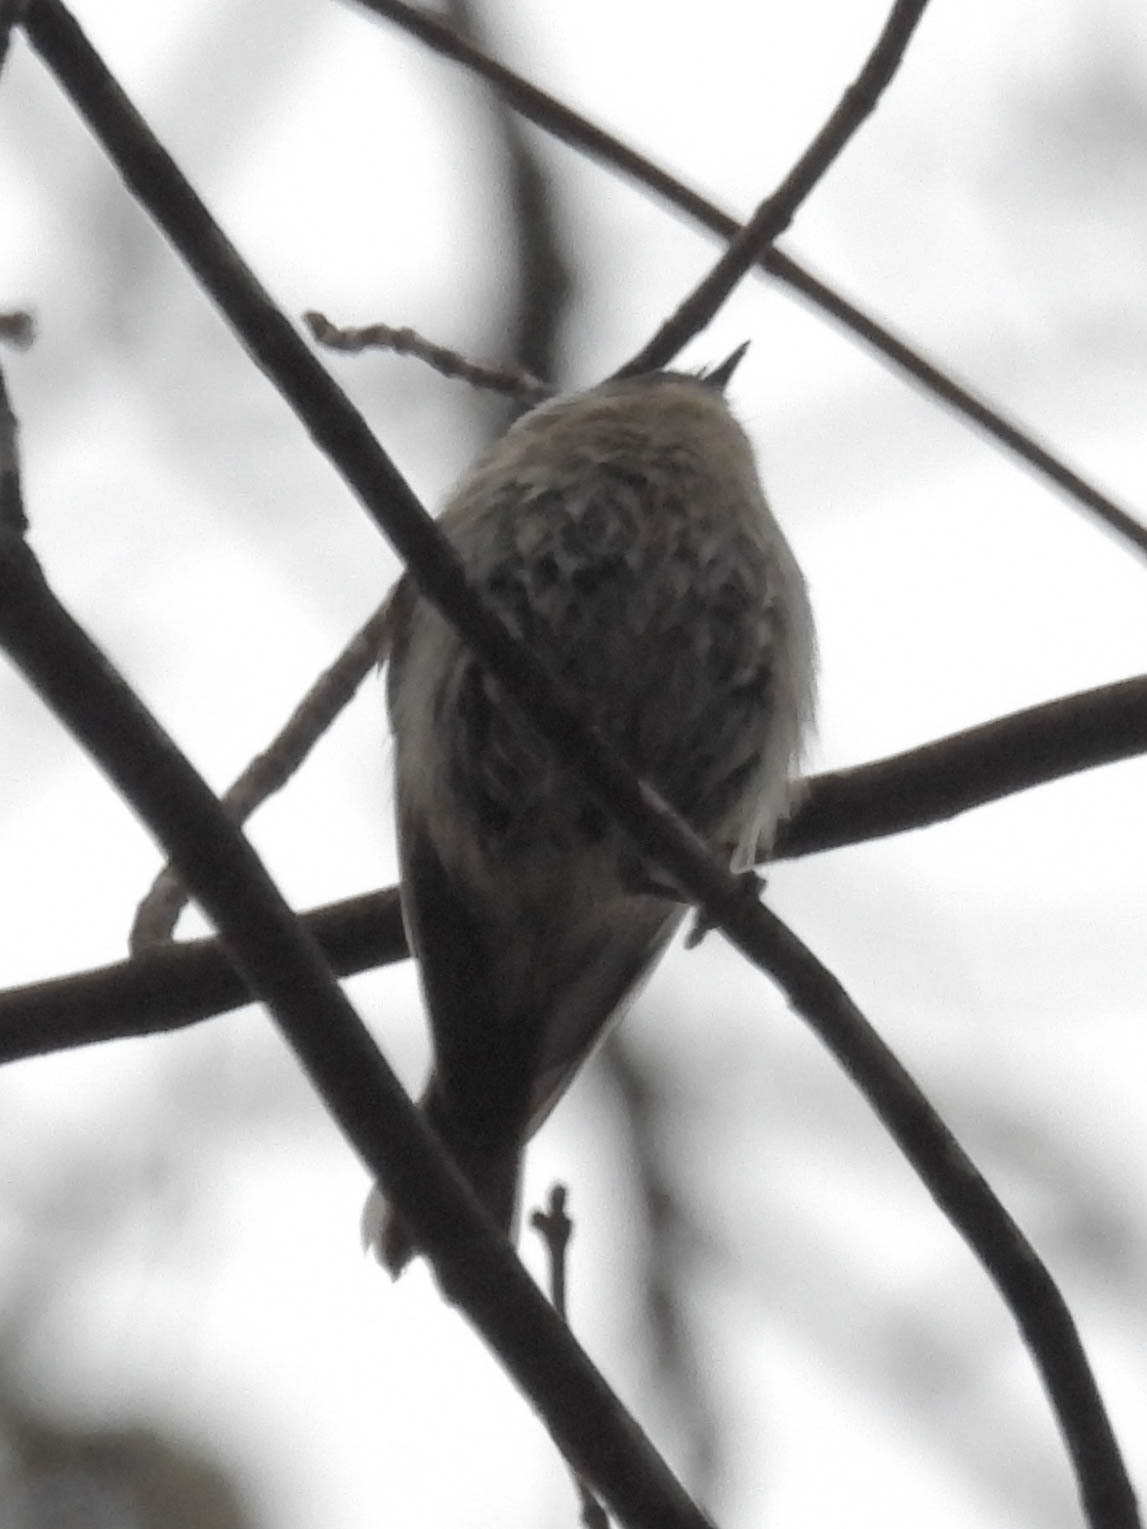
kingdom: Animalia
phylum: Chordata
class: Aves
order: Passeriformes
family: Regulidae
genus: Regulus
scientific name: Regulus satrapa
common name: Golden-crowned kinglet
